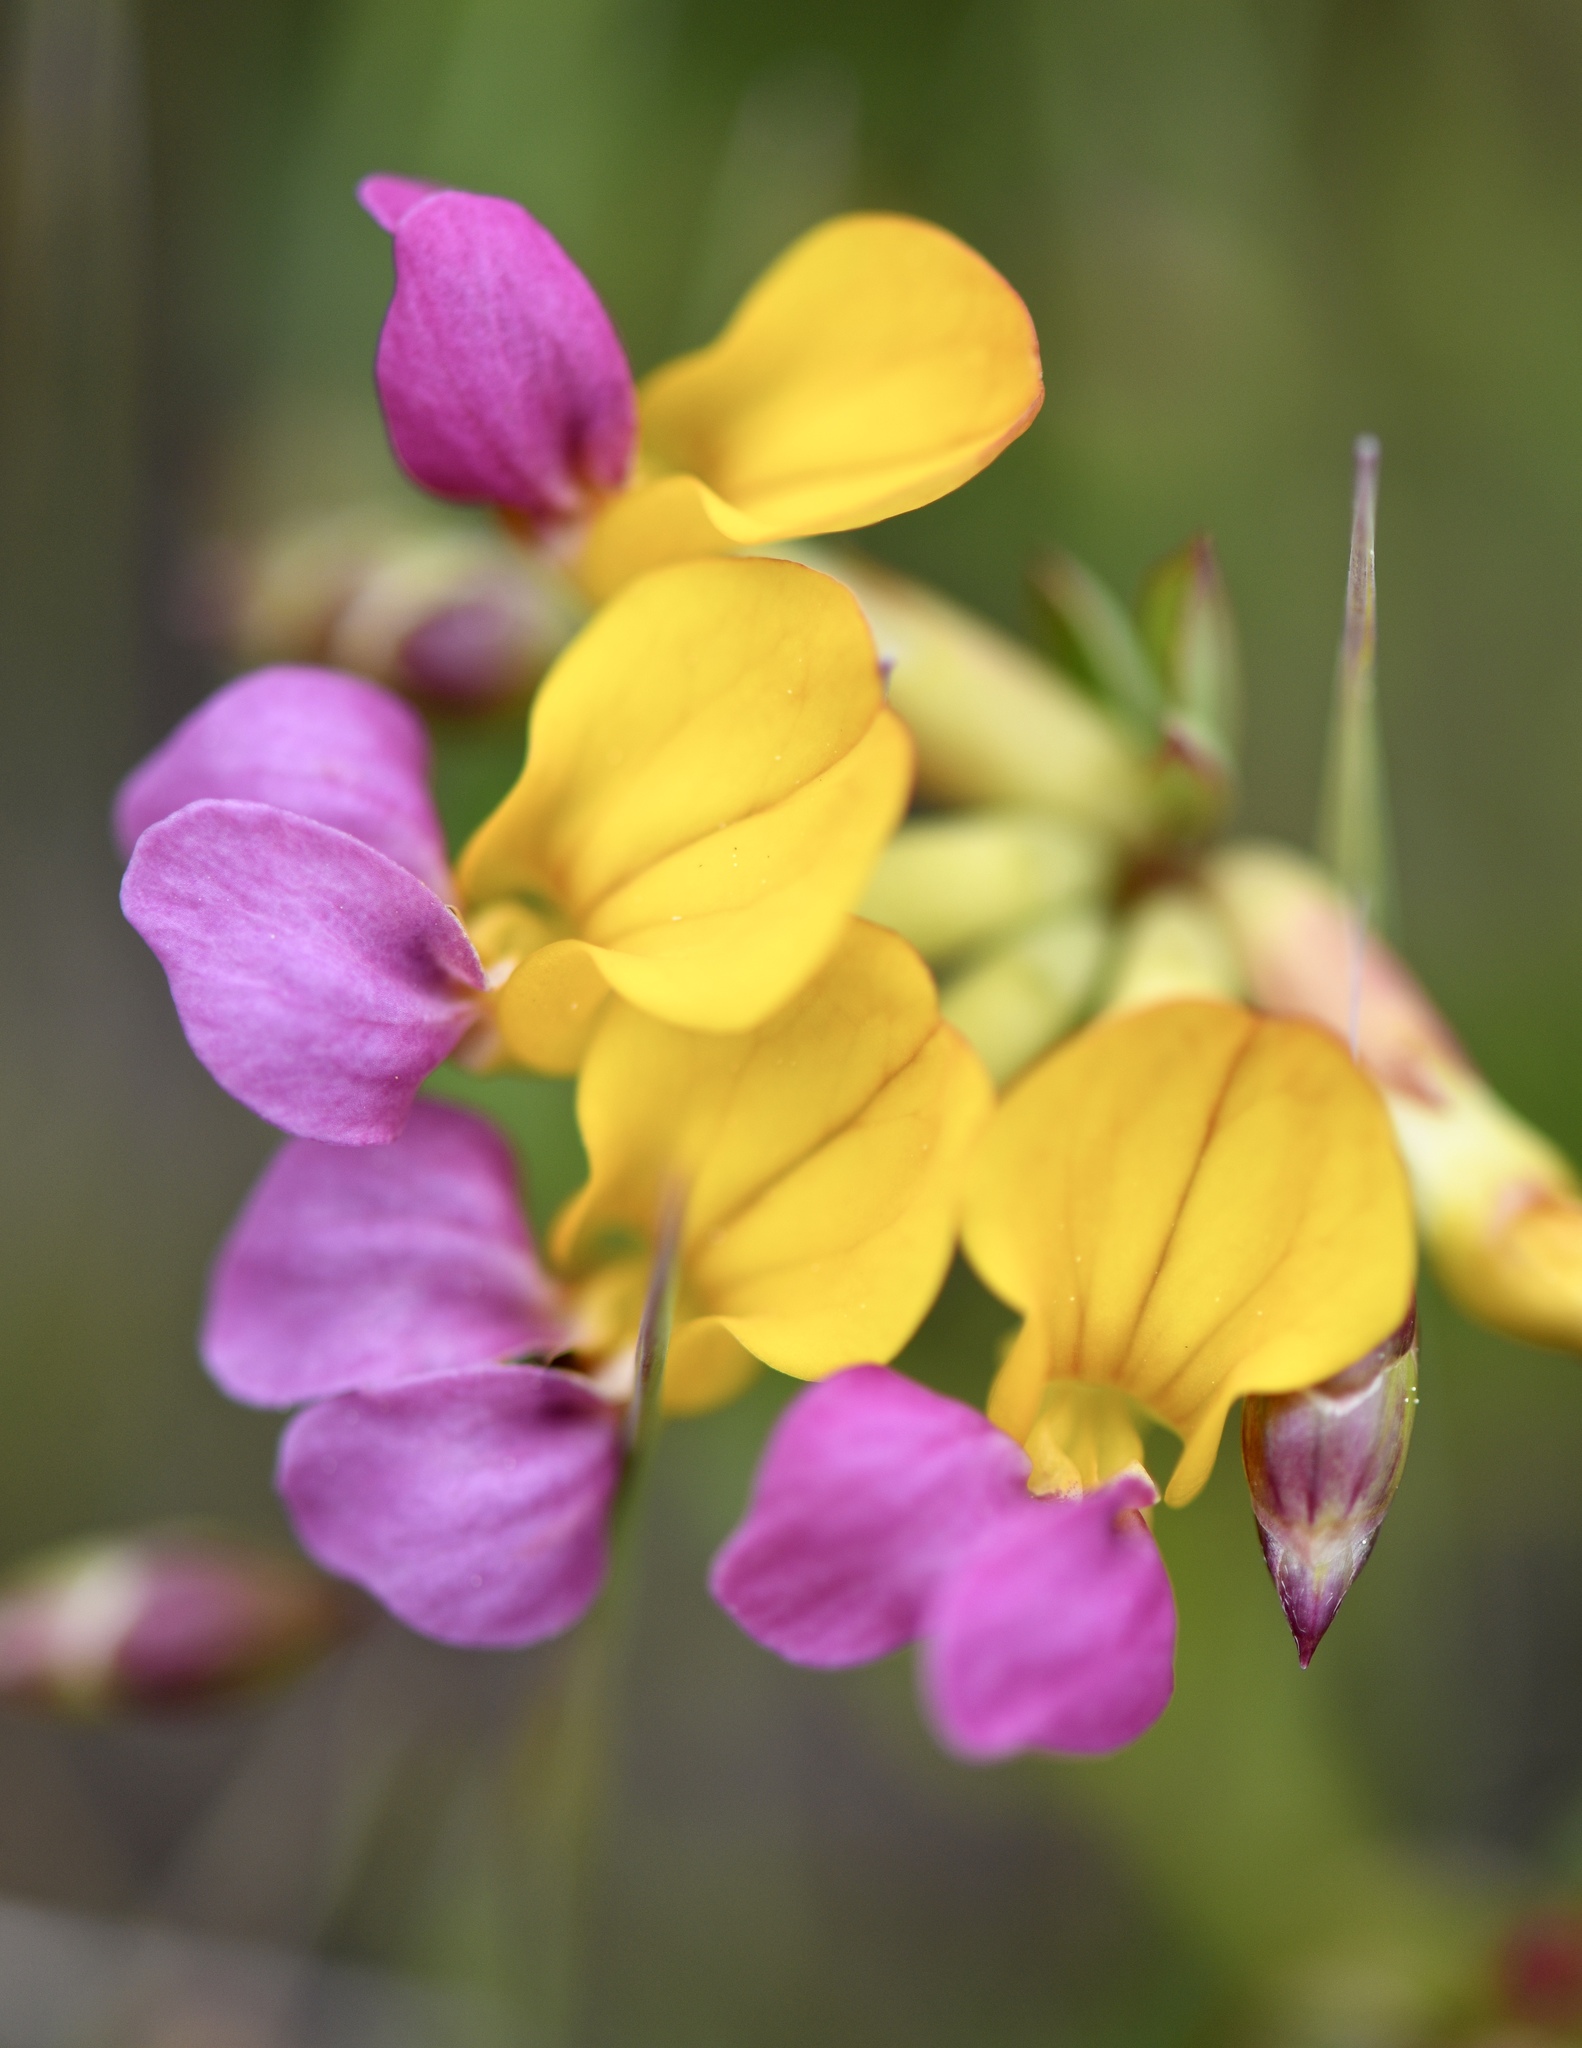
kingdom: Plantae
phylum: Tracheophyta
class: Magnoliopsida
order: Fabales
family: Fabaceae
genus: Hosackia
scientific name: Hosackia gracilis
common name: Seaside bird's-foot lotus
